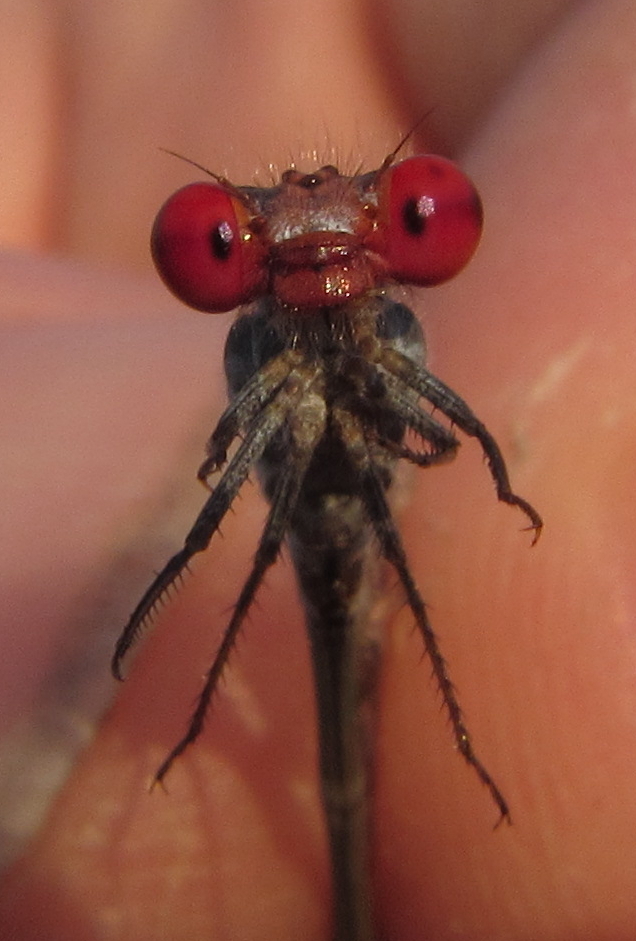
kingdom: Animalia
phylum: Arthropoda
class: Insecta
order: Odonata
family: Coenagrionidae
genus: Pseudagrion
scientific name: Pseudagrion sublacteum
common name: Cherry-eye sprite
